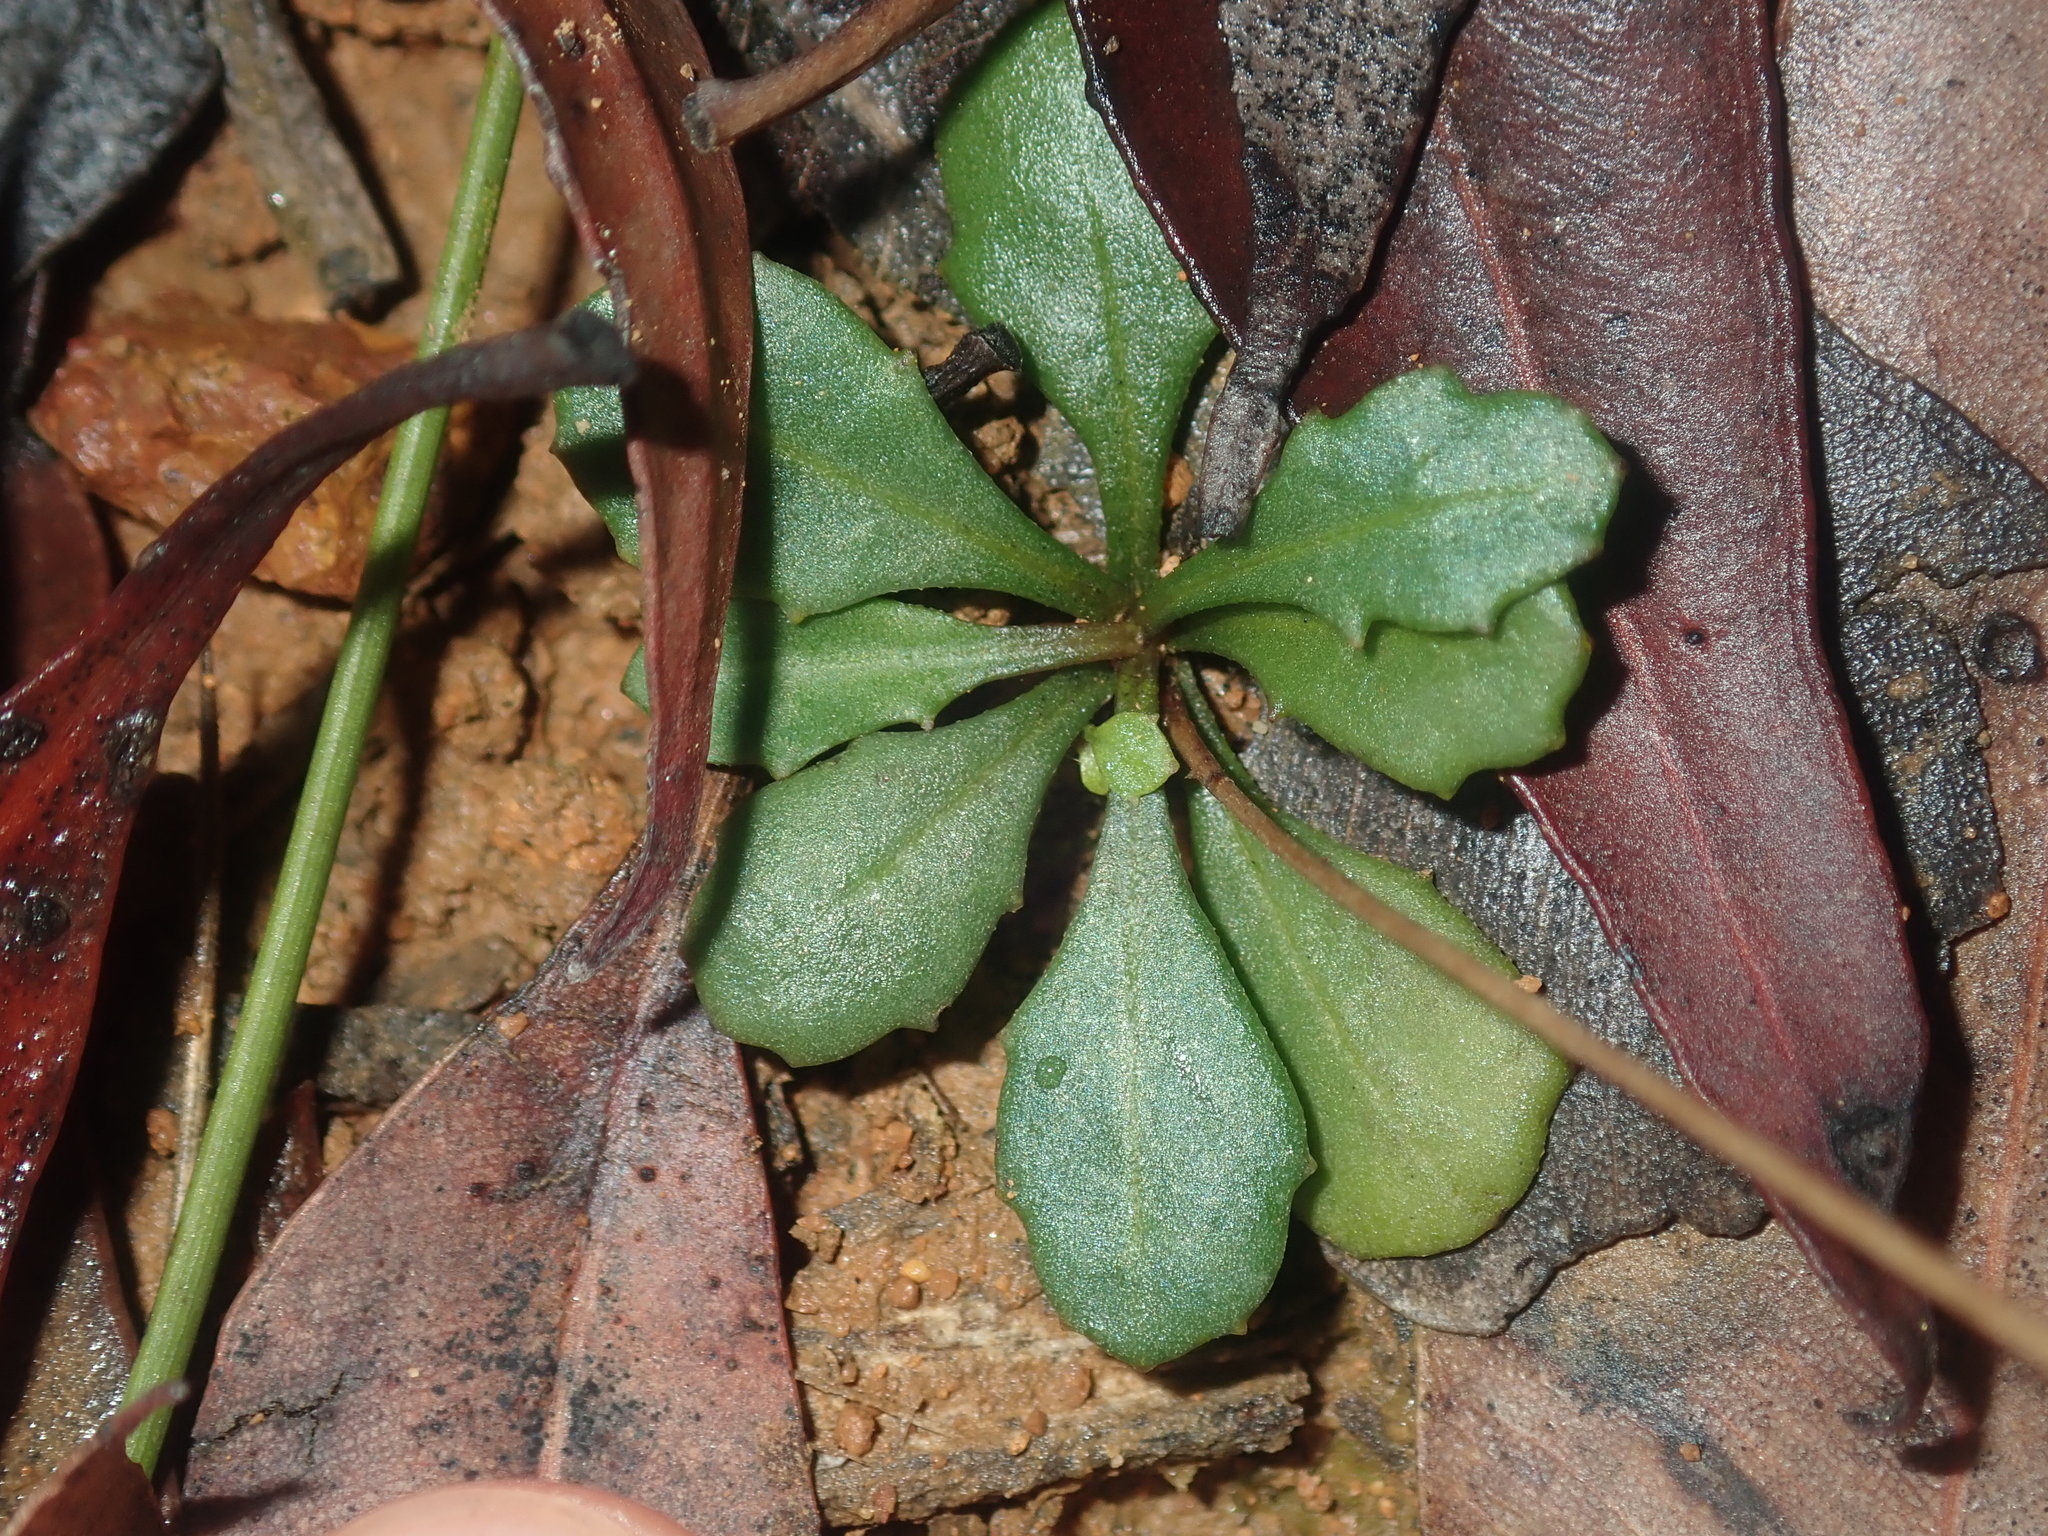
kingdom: Plantae
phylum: Tracheophyta
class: Magnoliopsida
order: Asterales
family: Asteraceae
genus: Lagenophora
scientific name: Lagenophora sublyrata ter
